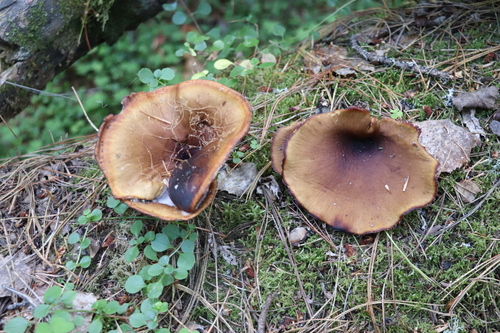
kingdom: Fungi
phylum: Basidiomycota
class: Agaricomycetes
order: Polyporales
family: Polyporaceae
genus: Picipes
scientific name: Picipes badius
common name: Bay polypore
